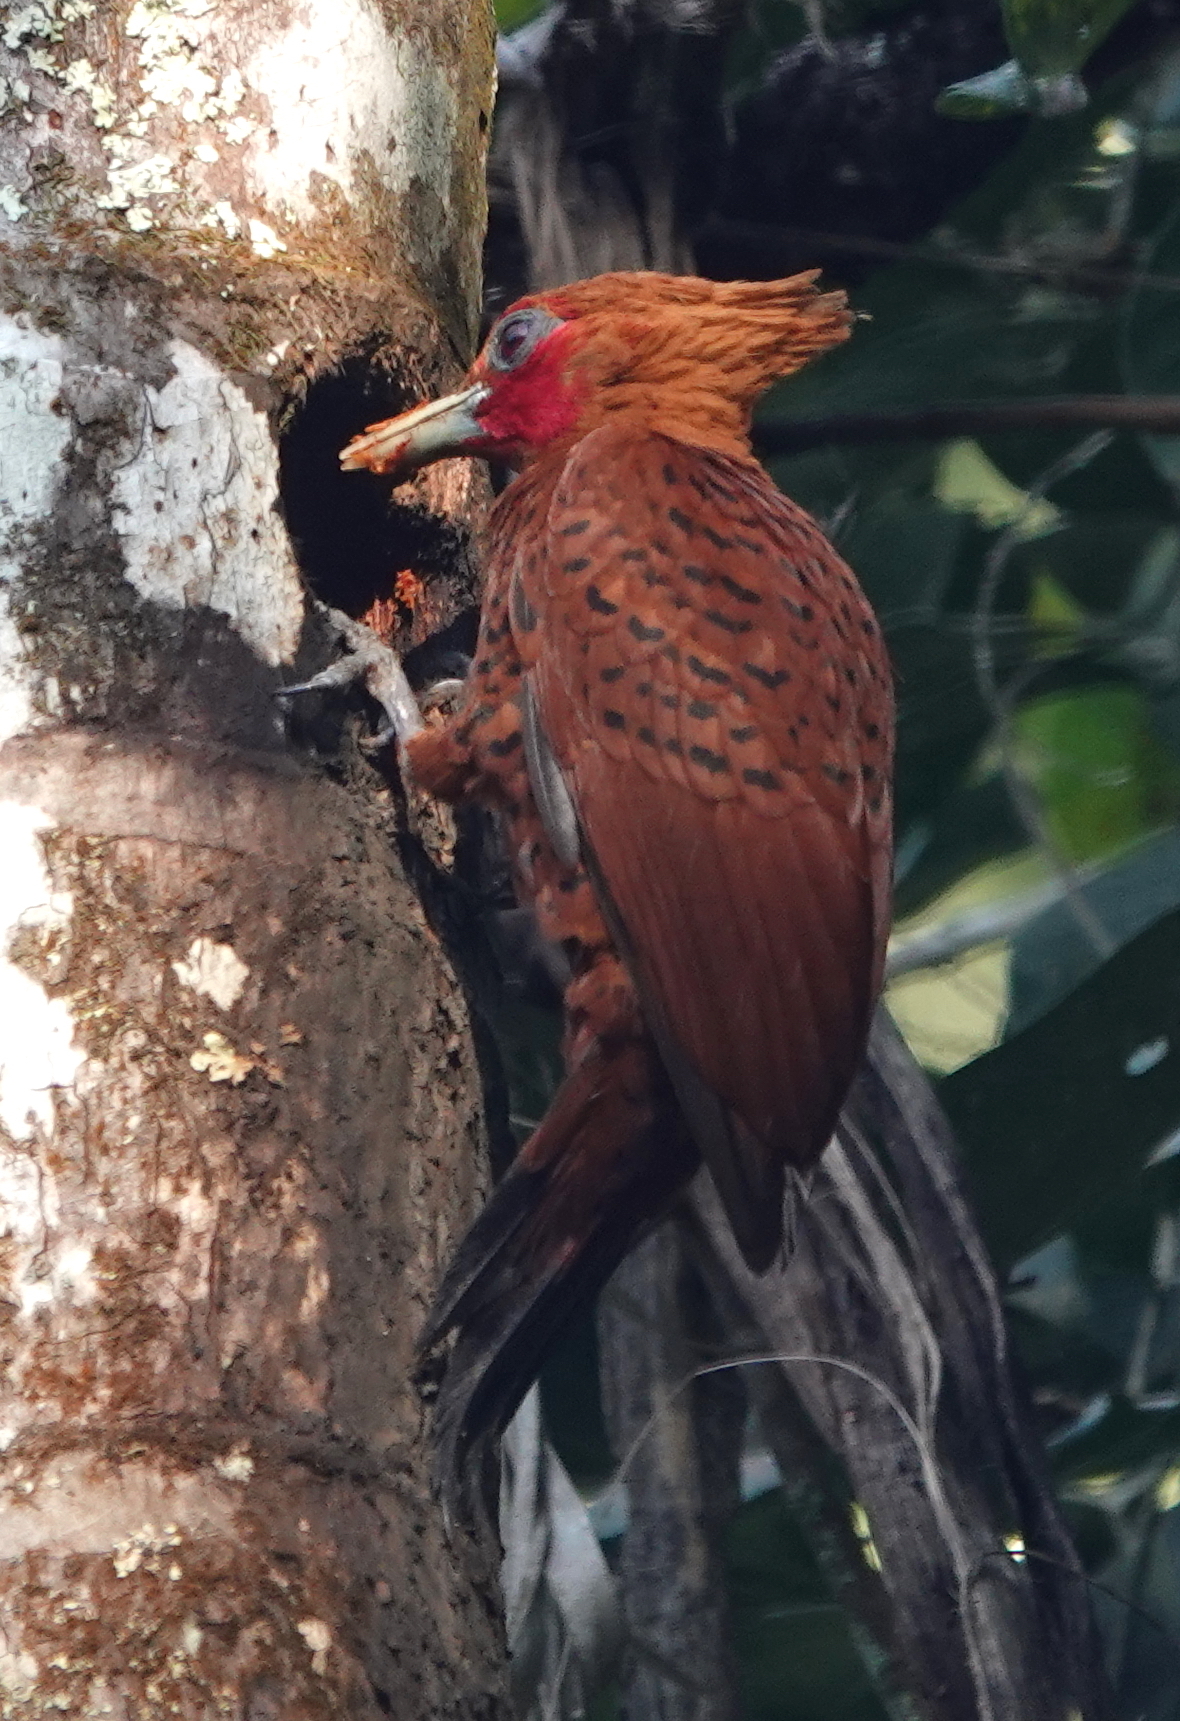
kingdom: Animalia
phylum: Chordata
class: Aves
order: Piciformes
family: Picidae
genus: Celeus
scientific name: Celeus castaneus
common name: Chestnut-colored woodpecker
